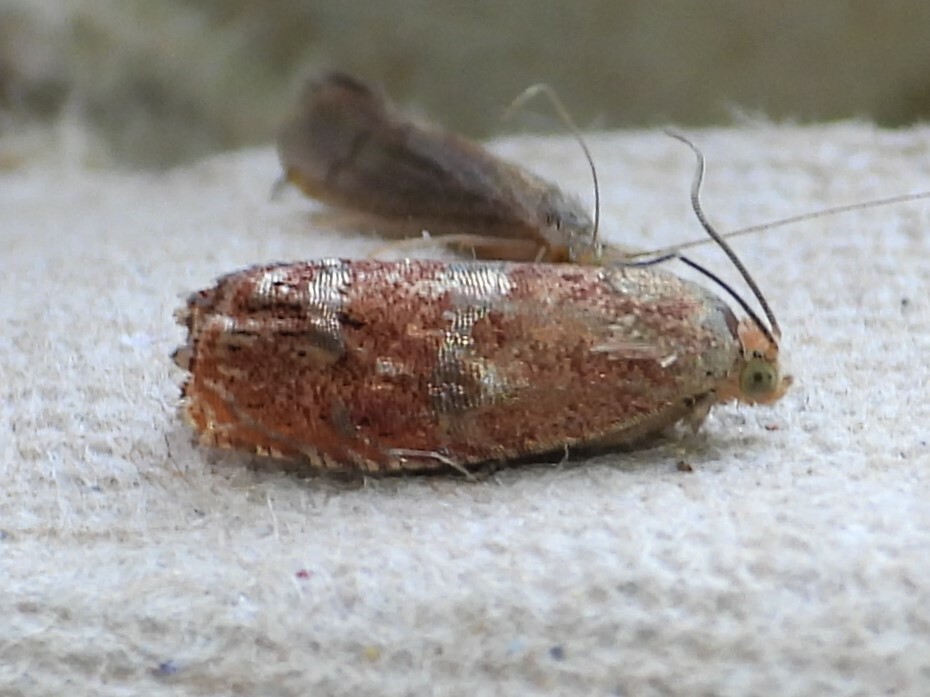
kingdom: Animalia
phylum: Arthropoda
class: Insecta
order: Lepidoptera
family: Tortricidae
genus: Cydia
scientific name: Cydia latiferreana
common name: Filbertworm moth
